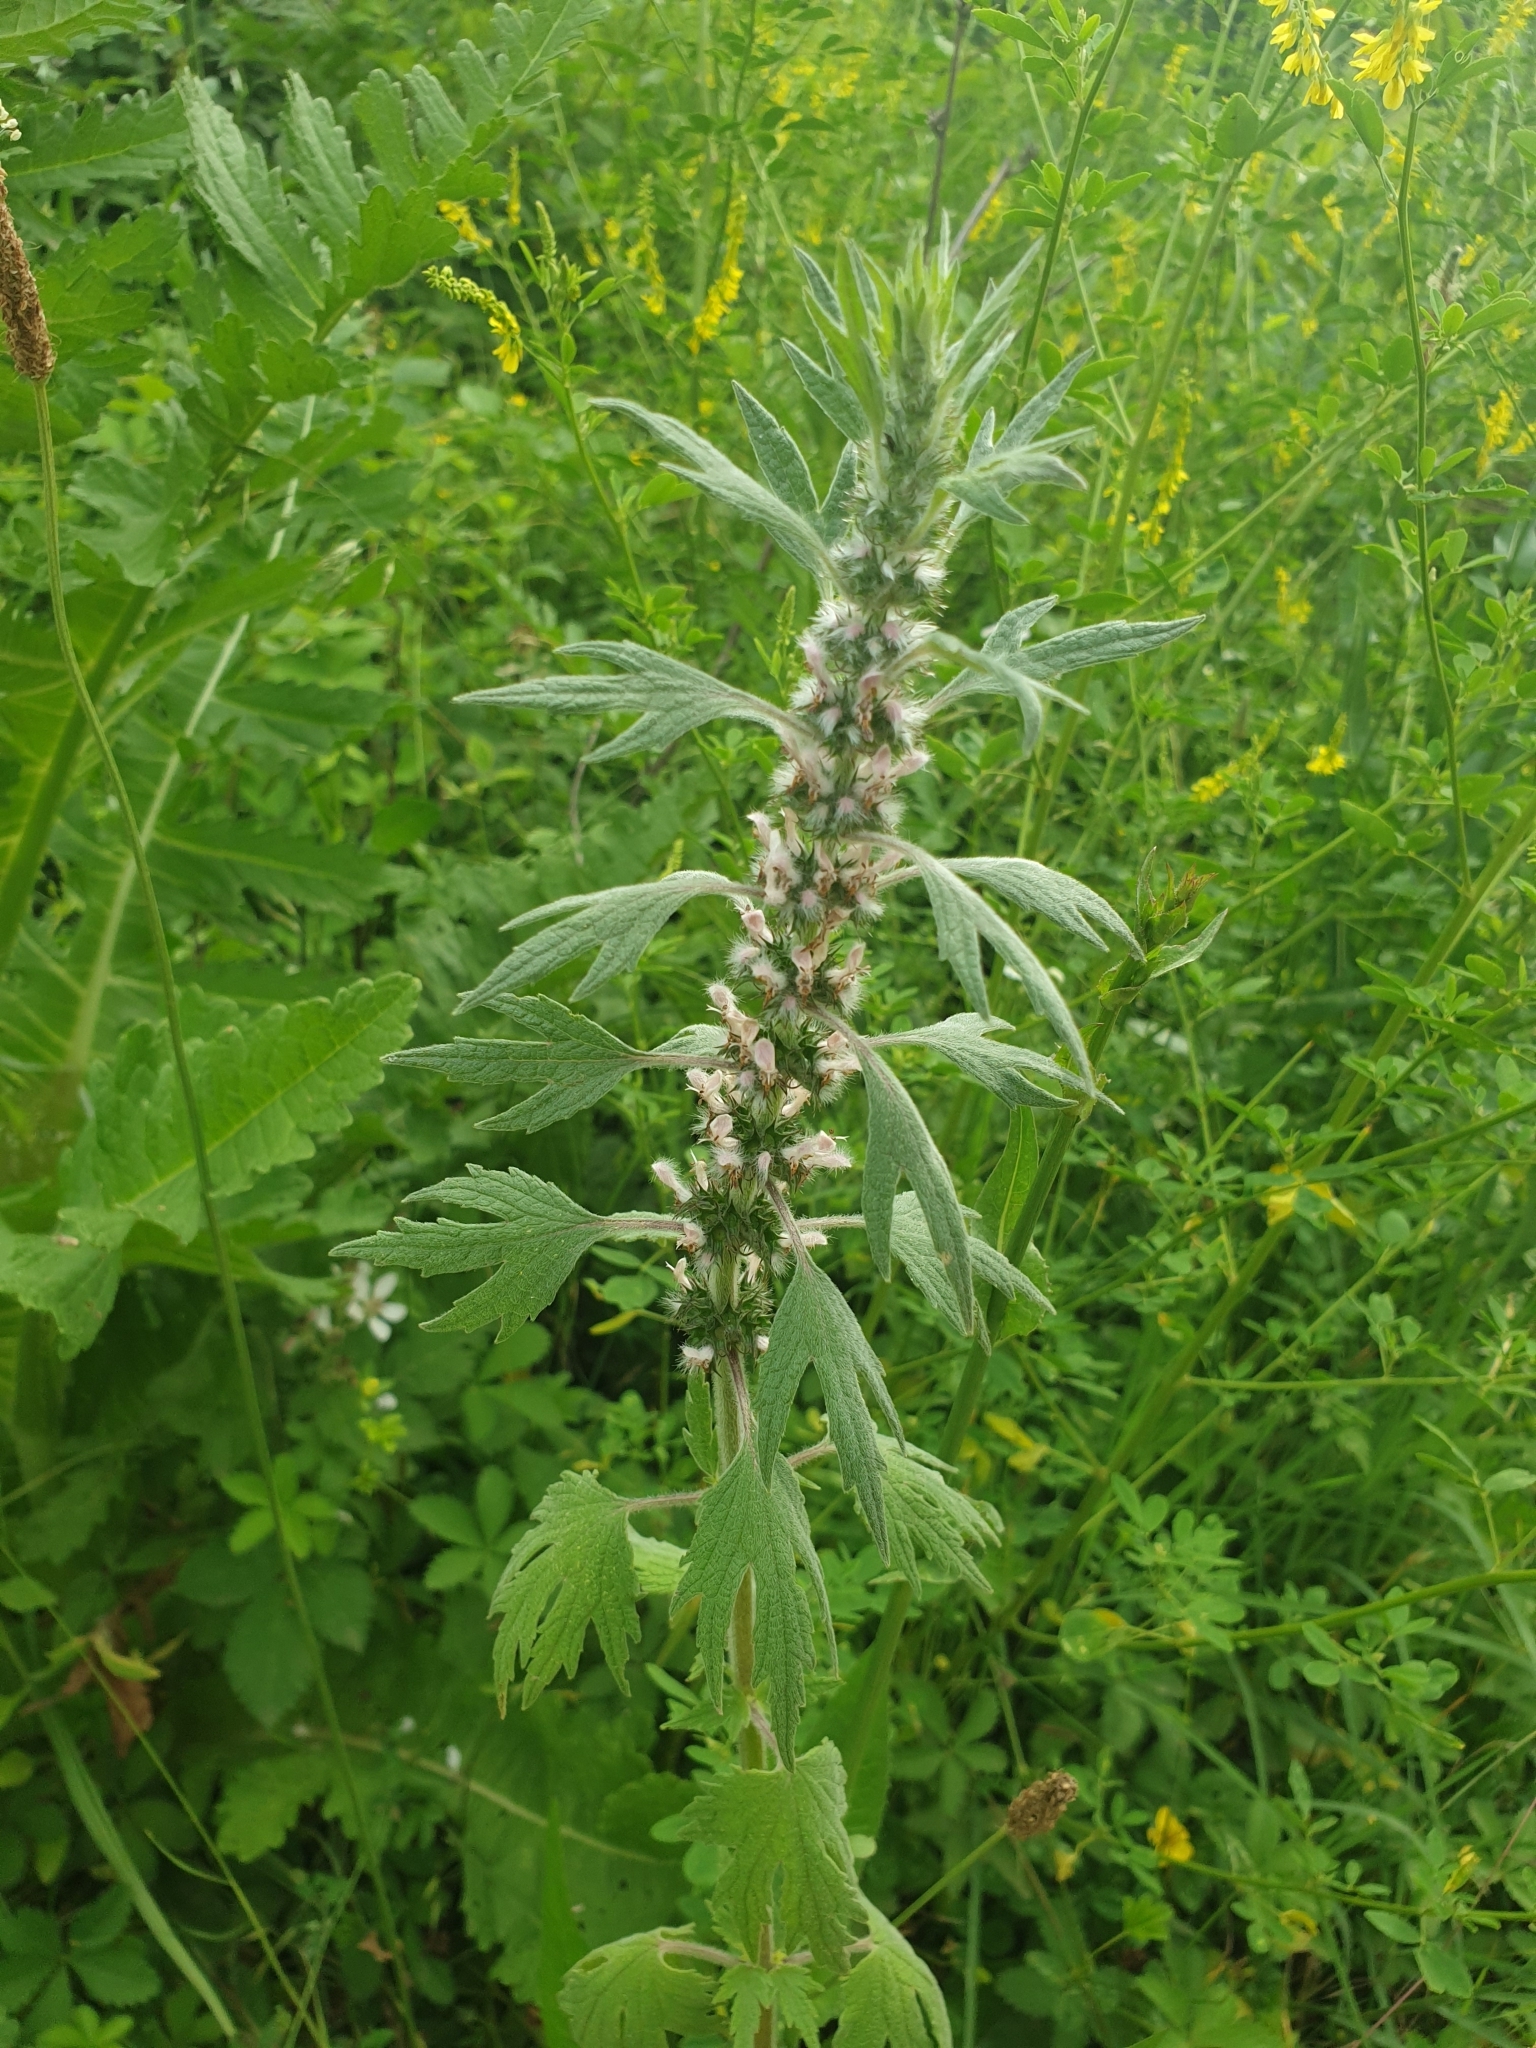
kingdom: Plantae
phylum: Tracheophyta
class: Magnoliopsida
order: Lamiales
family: Lamiaceae
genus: Leonurus
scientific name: Leonurus quinquelobatus
